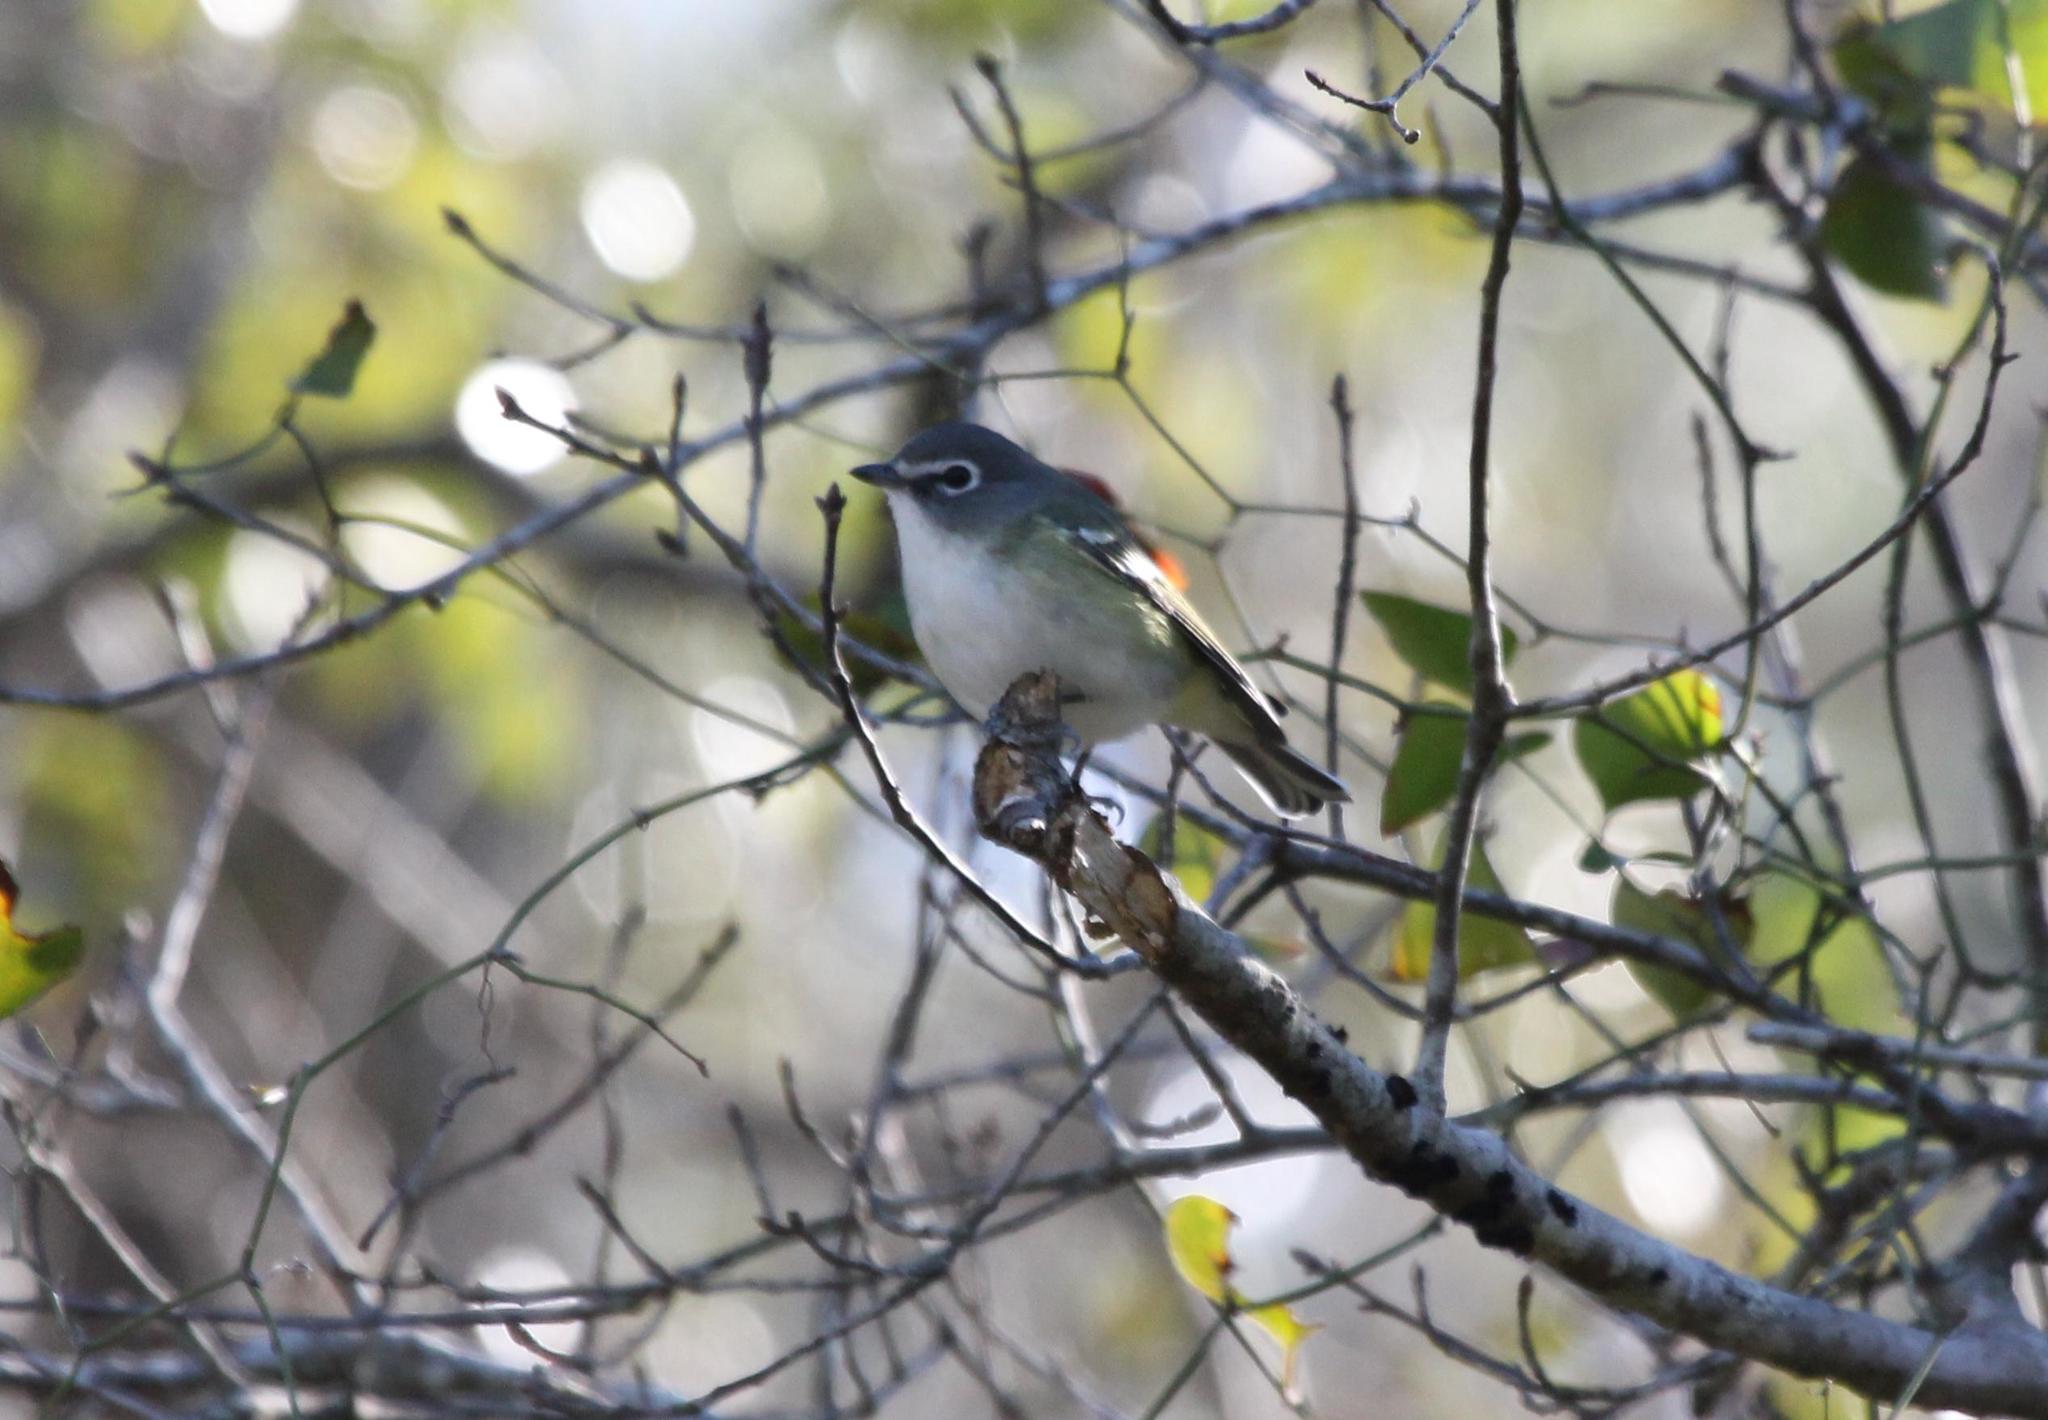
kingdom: Animalia
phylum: Chordata
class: Aves
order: Passeriformes
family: Vireonidae
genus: Vireo
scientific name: Vireo solitarius
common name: Blue-headed vireo
